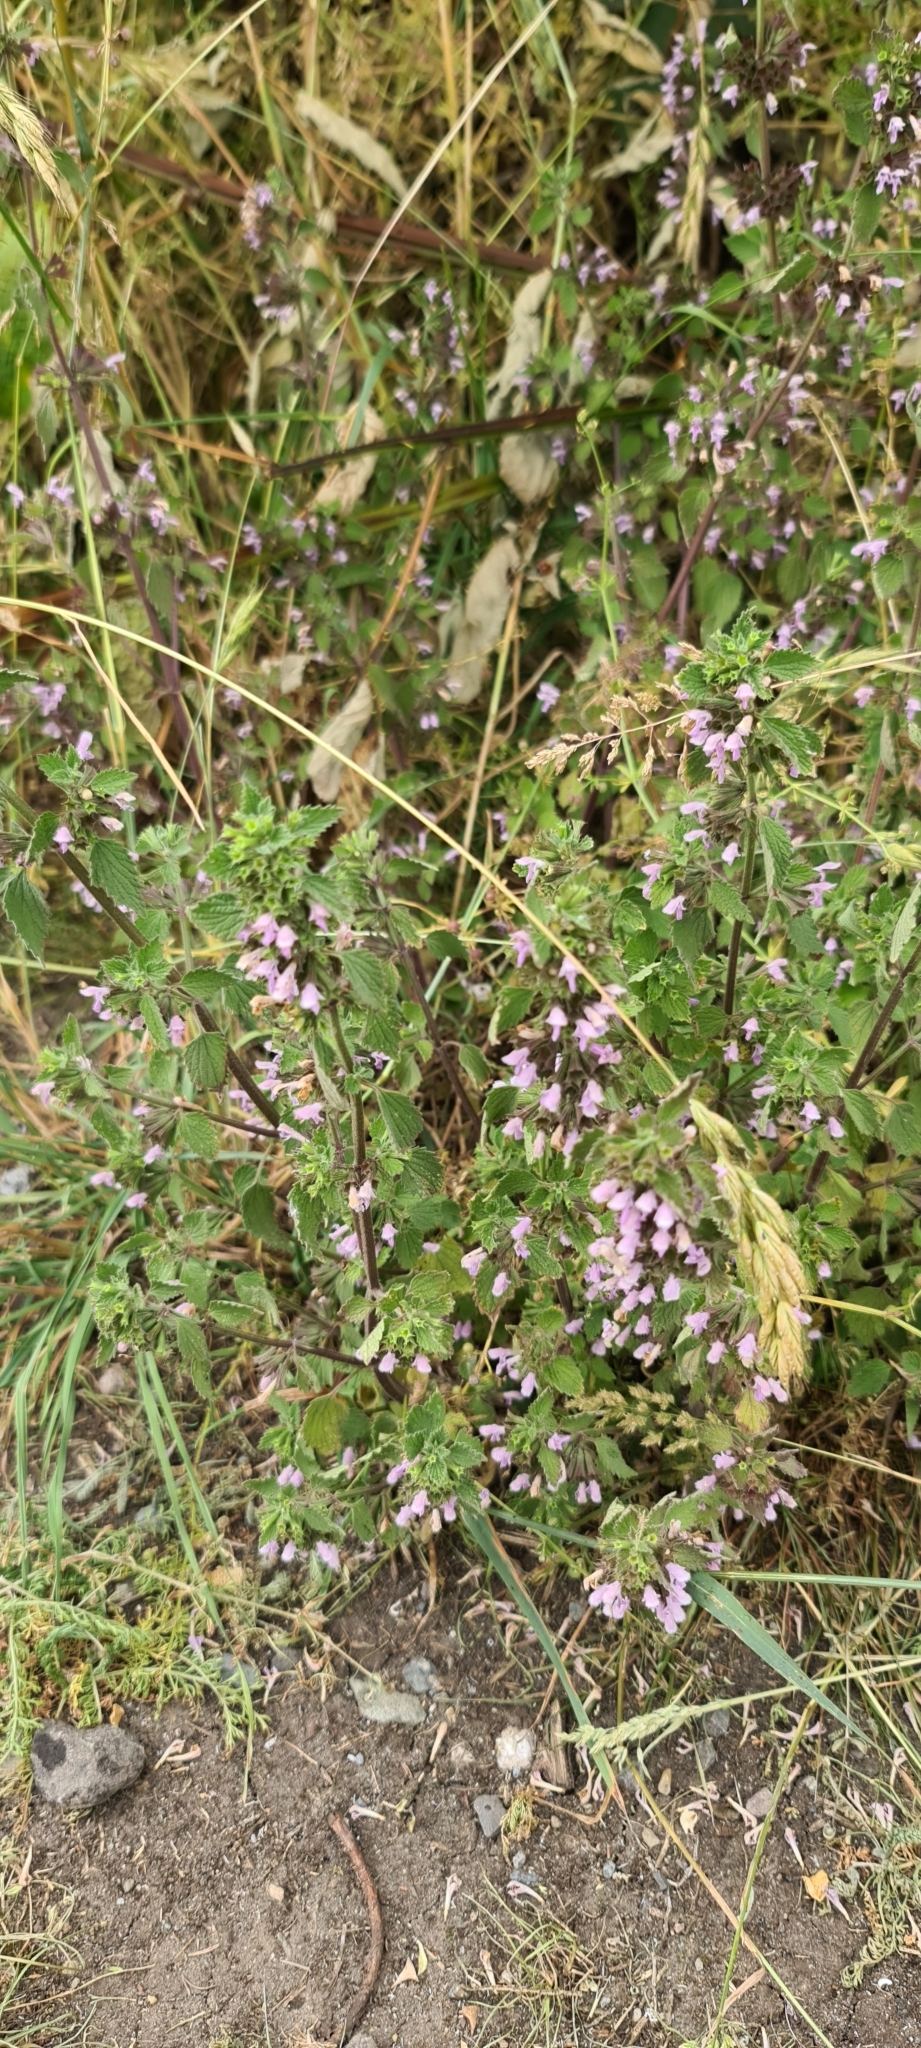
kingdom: Plantae
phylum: Tracheophyta
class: Magnoliopsida
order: Lamiales
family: Lamiaceae
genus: Ballota
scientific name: Ballota nigra
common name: Black horehound
